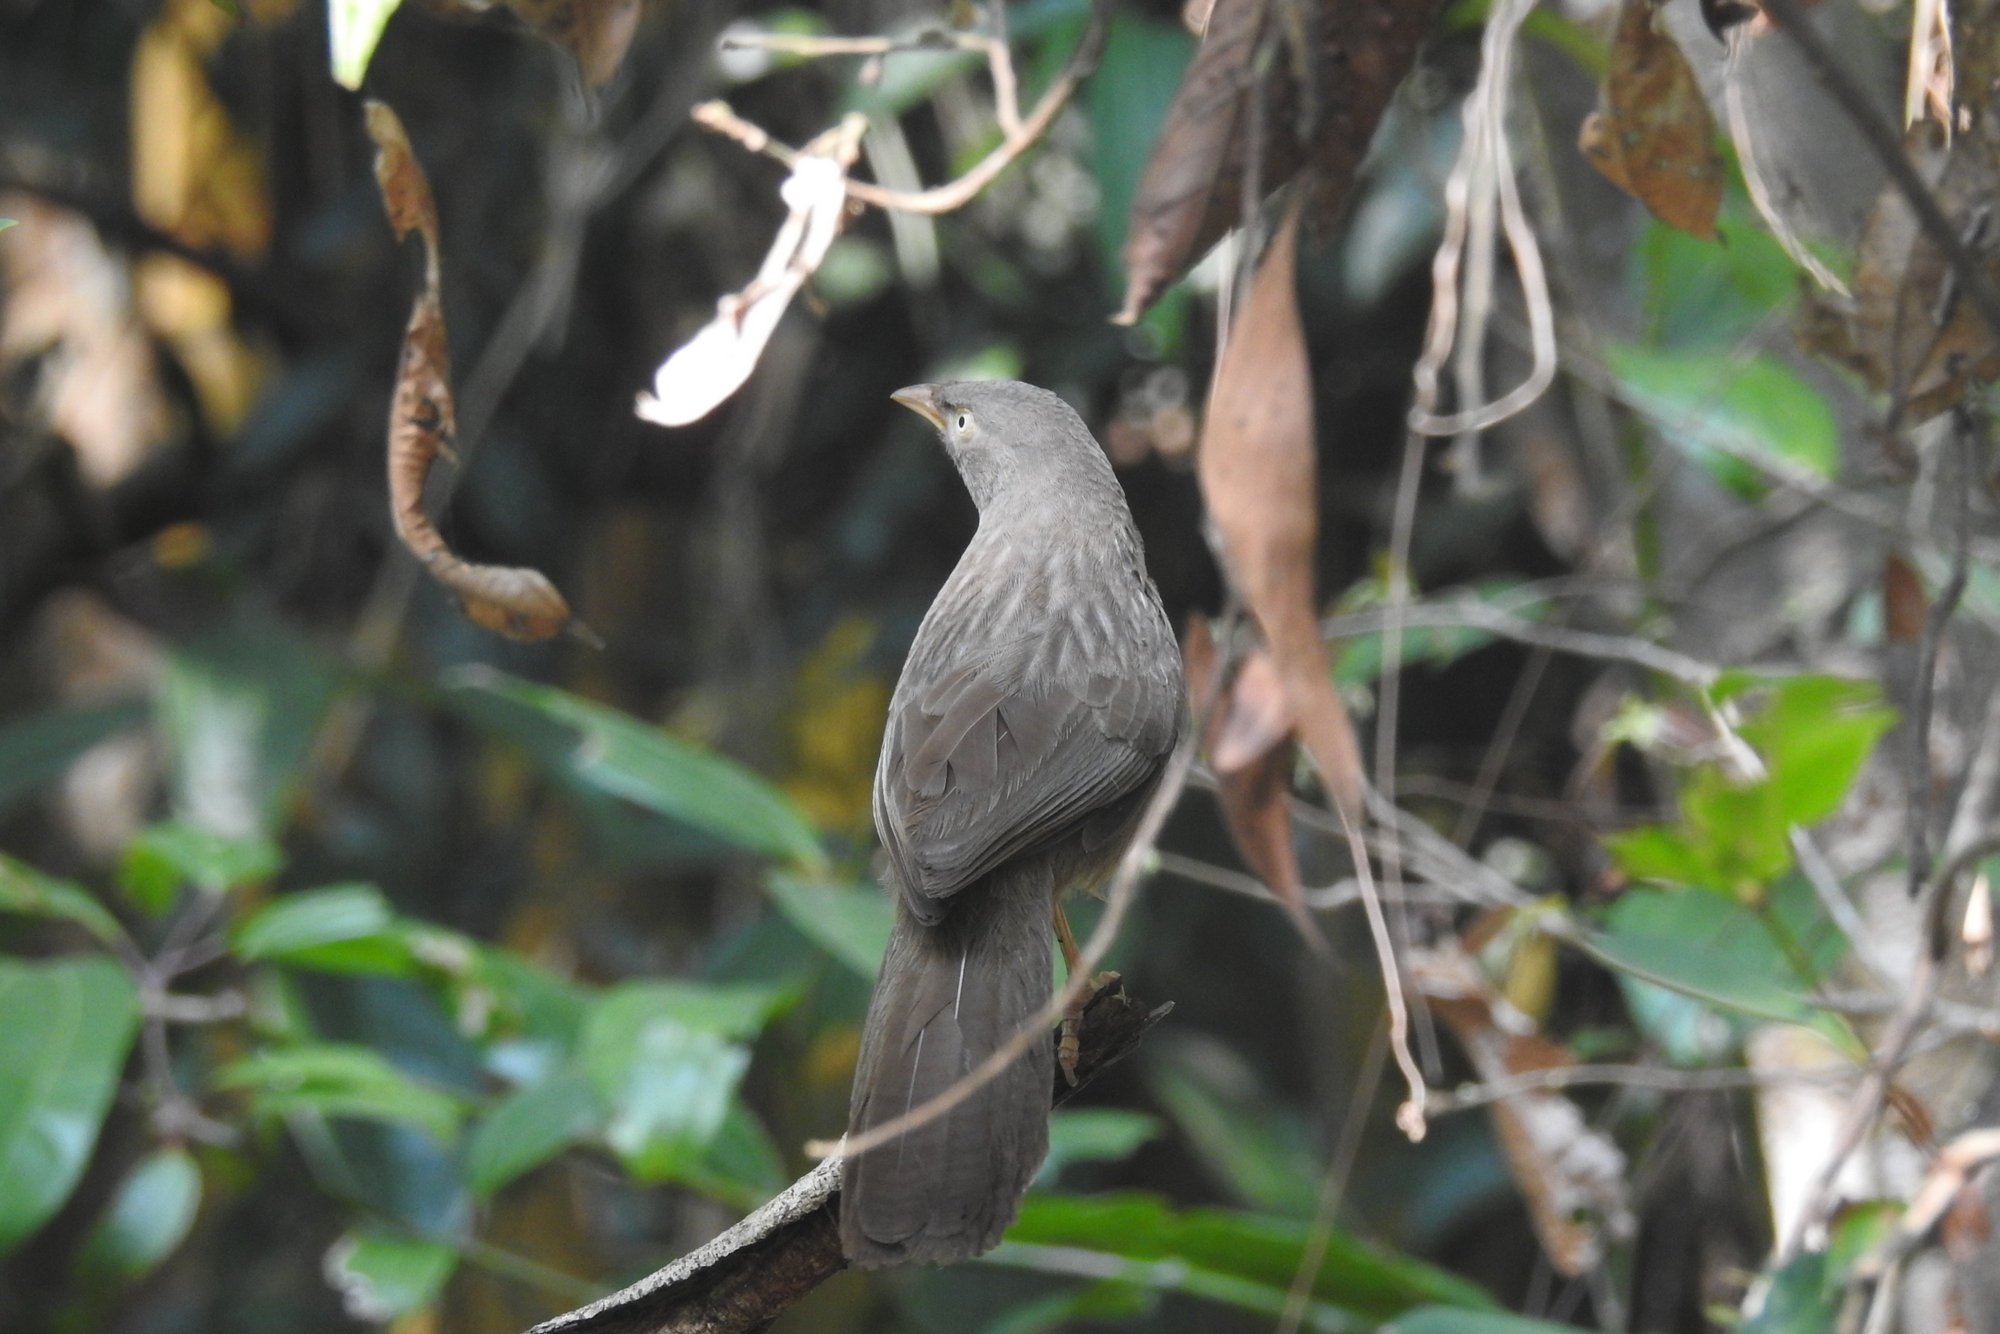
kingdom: Animalia
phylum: Chordata
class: Aves
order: Passeriformes
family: Leiothrichidae
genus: Turdoides
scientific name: Turdoides striata
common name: Jungle babbler
